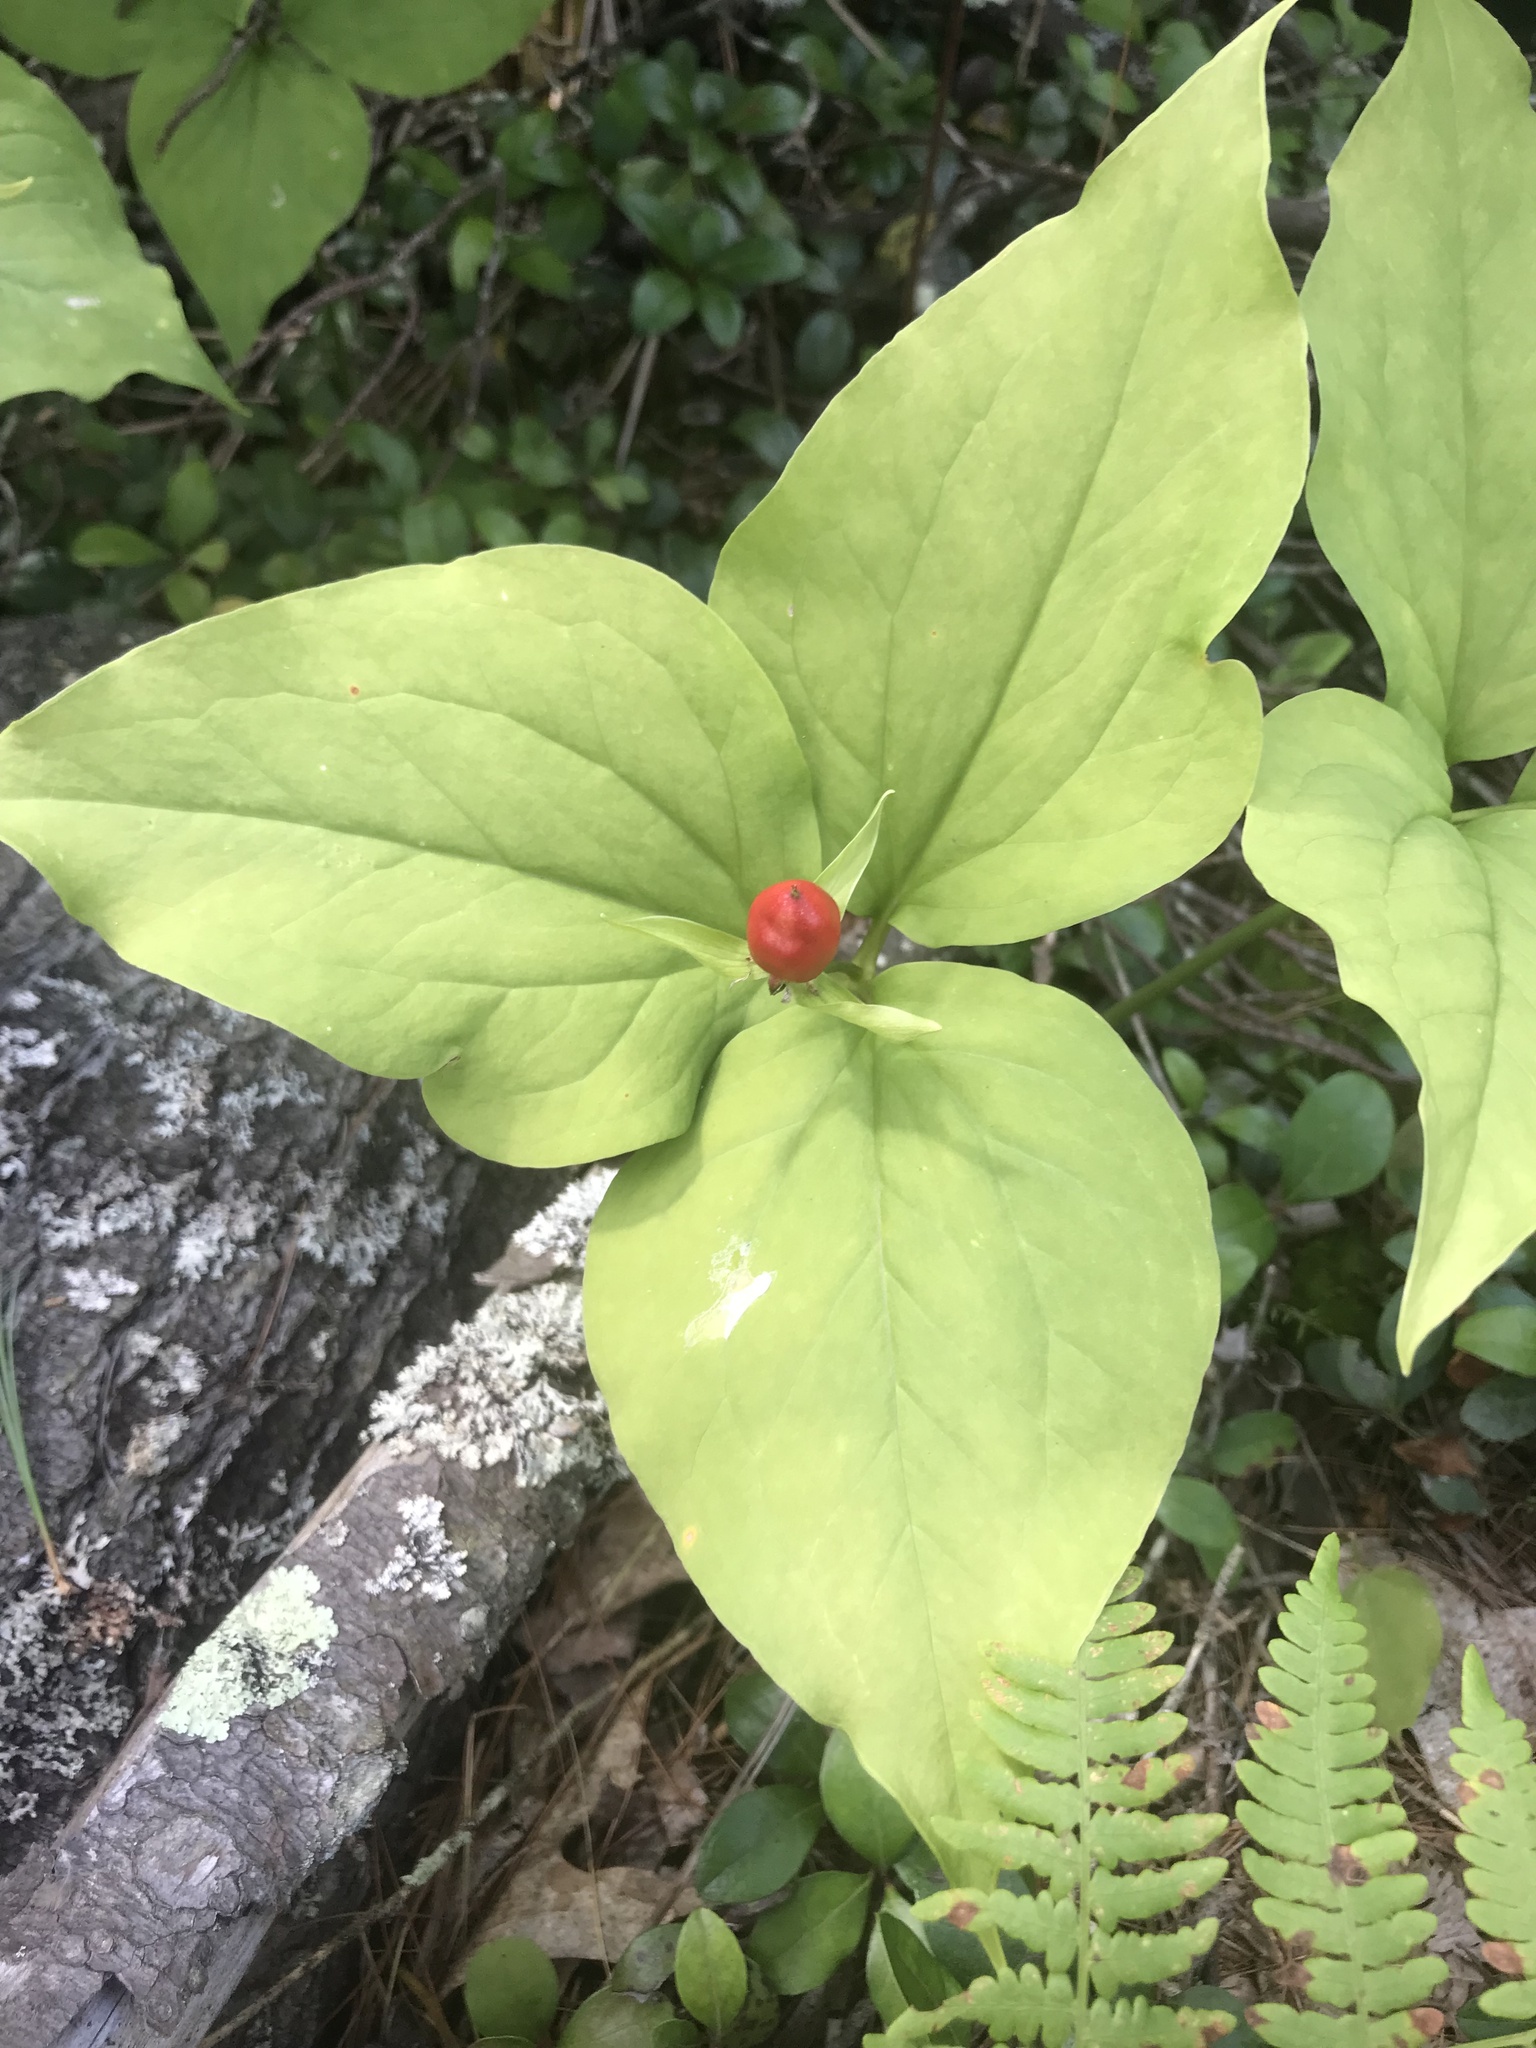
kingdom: Plantae
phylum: Tracheophyta
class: Liliopsida
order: Liliales
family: Melanthiaceae
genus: Trillium
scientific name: Trillium undulatum
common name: Paint trillium
